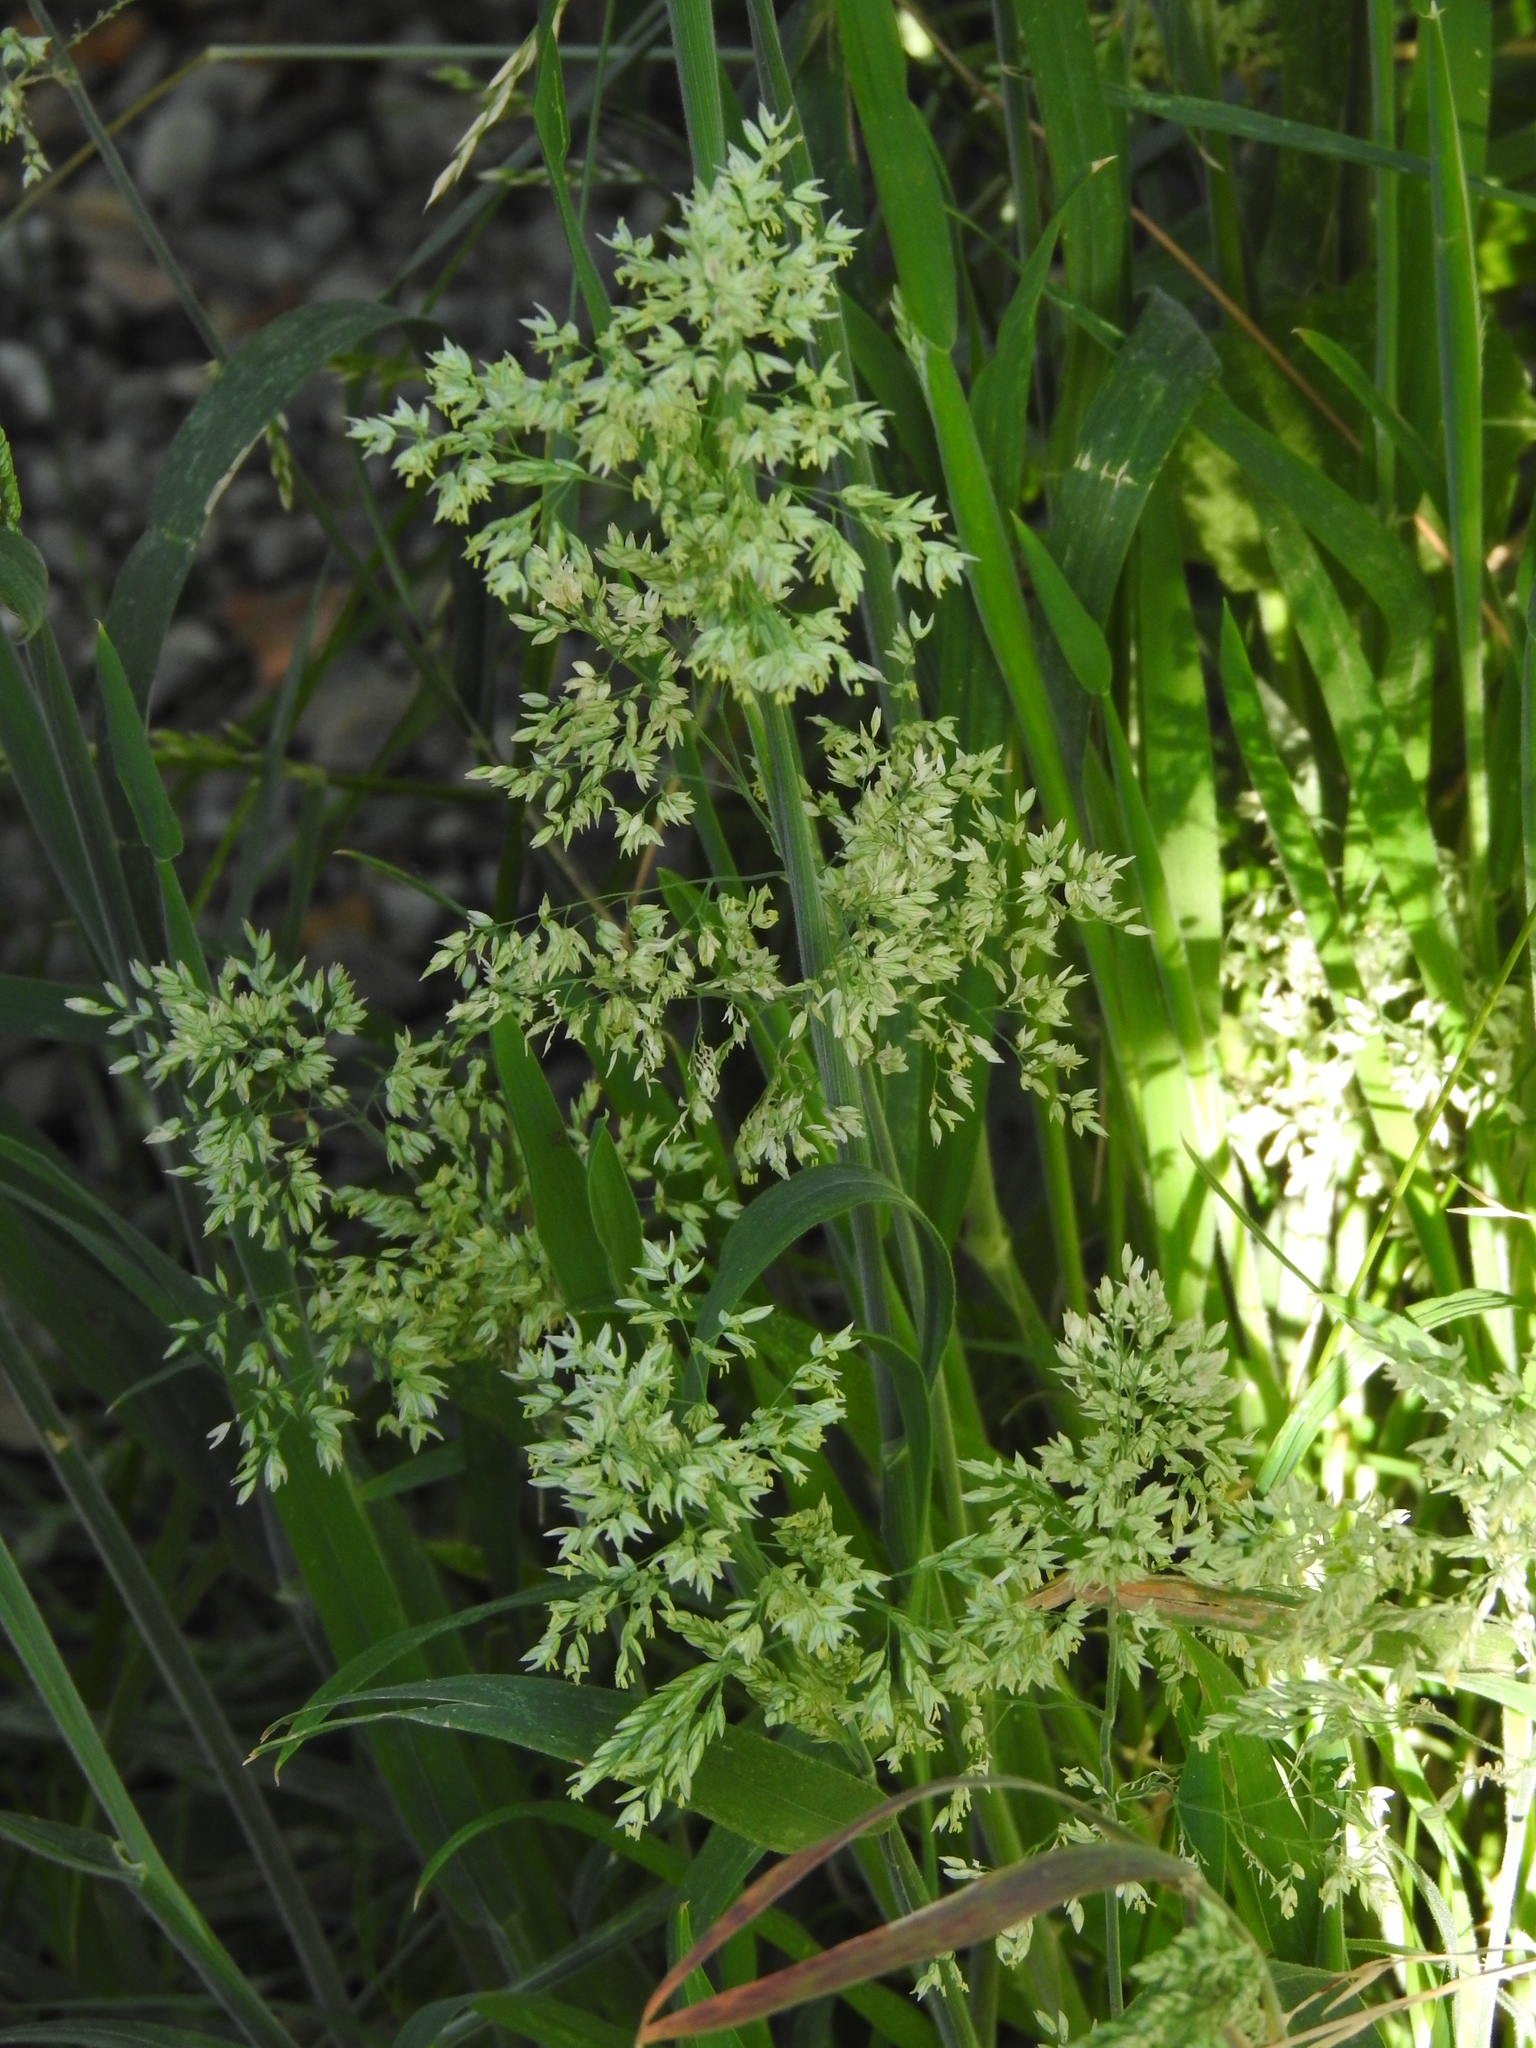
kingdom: Plantae
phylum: Tracheophyta
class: Liliopsida
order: Poales
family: Poaceae
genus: Holcus
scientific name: Holcus lanatus
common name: Yorkshire-fog
